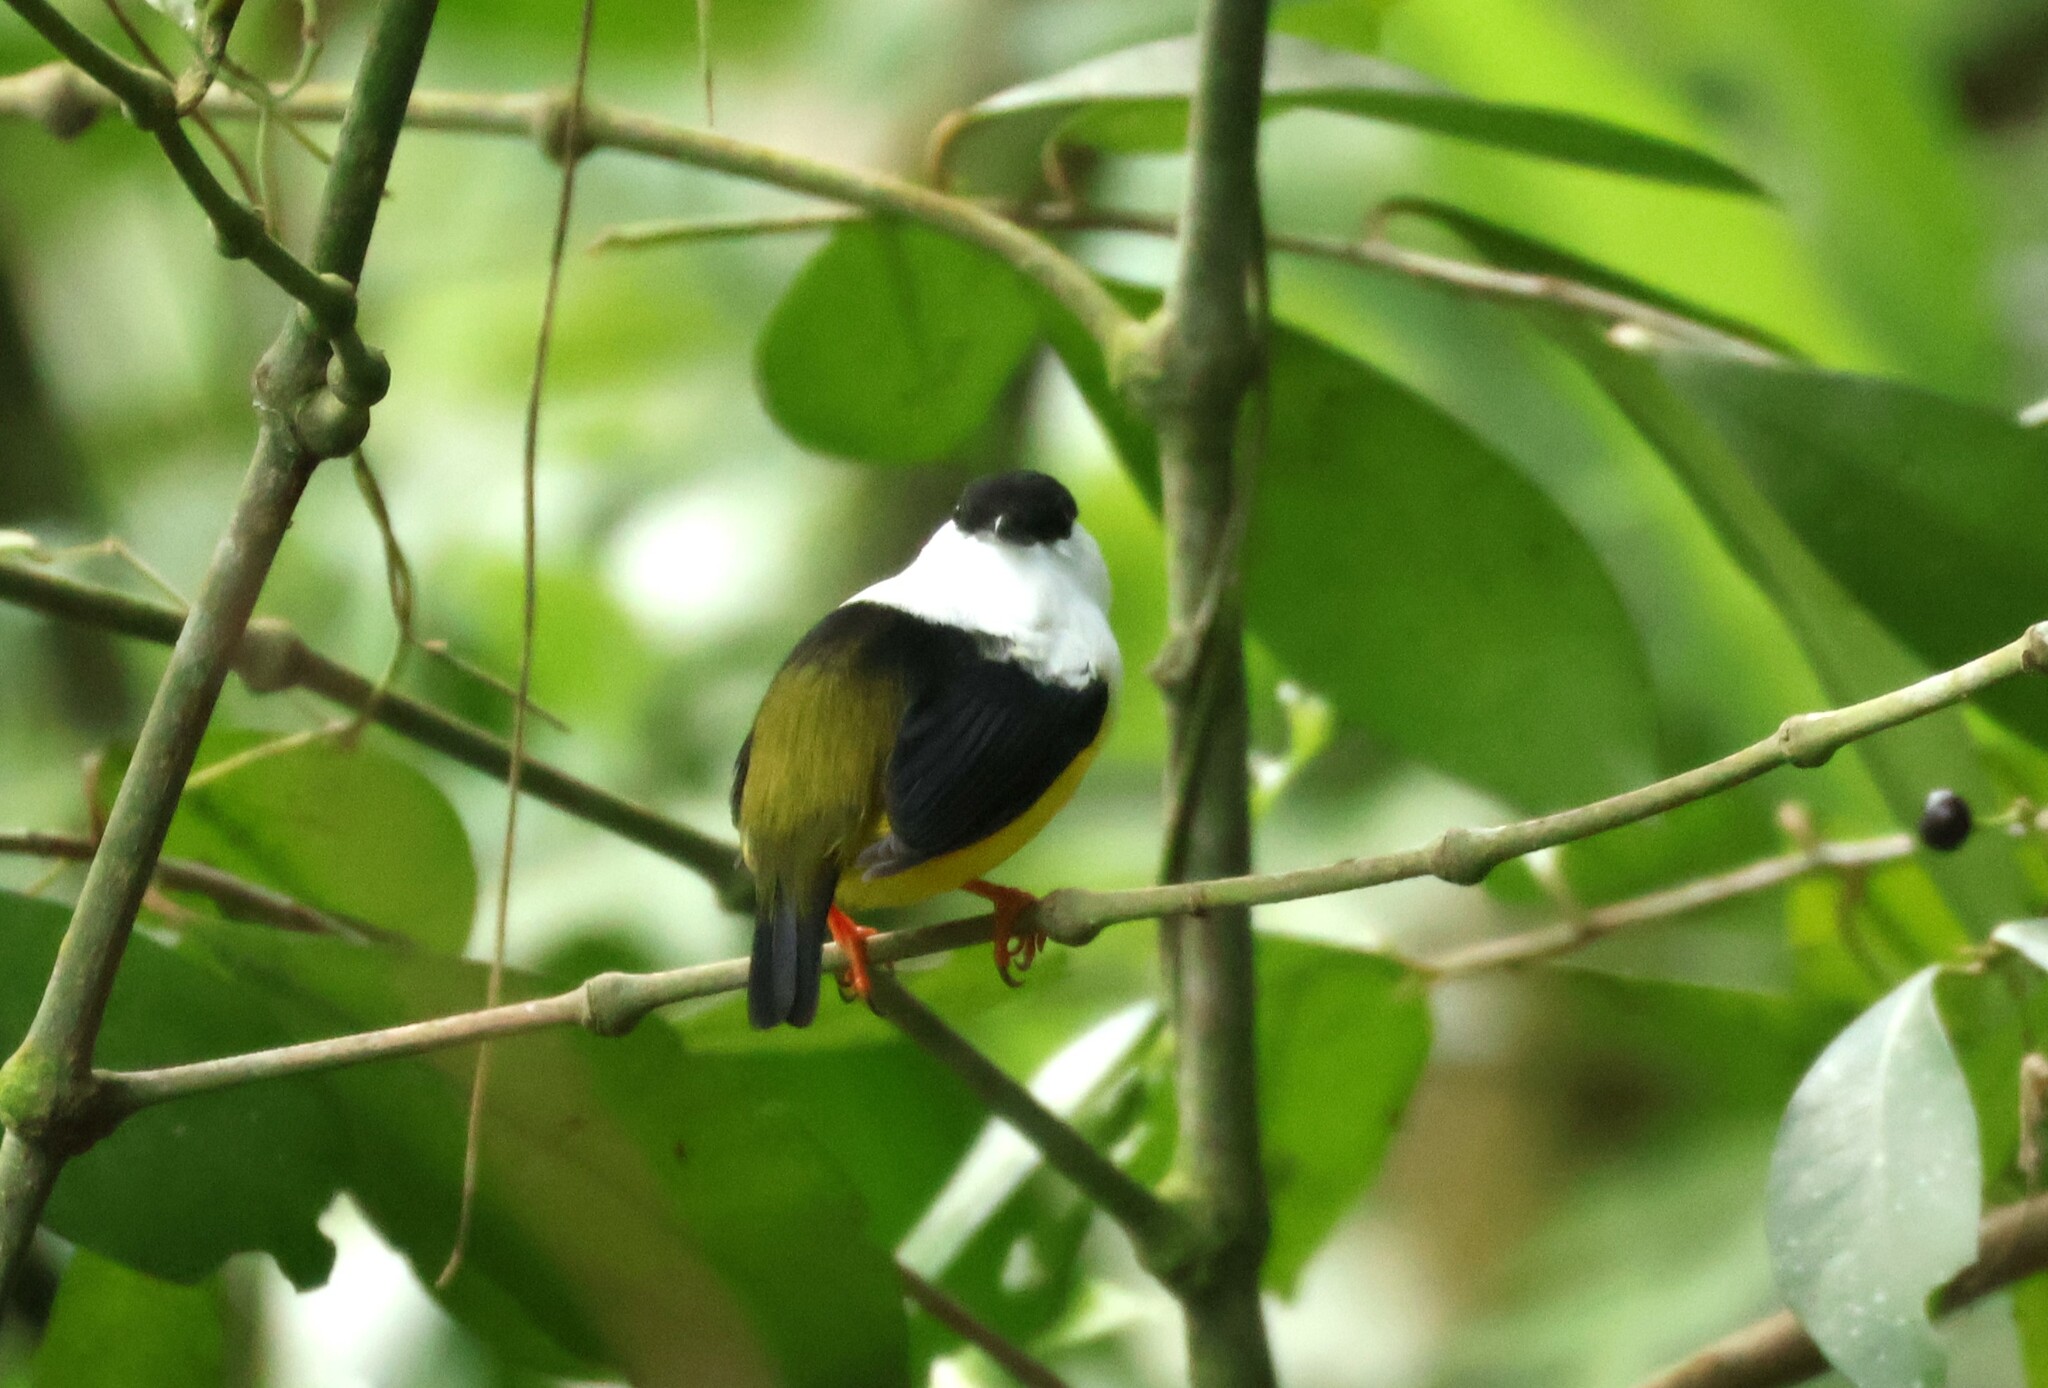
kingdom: Animalia
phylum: Chordata
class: Aves
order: Passeriformes
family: Pipridae
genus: Manacus
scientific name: Manacus candei
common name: White-collared manakin
